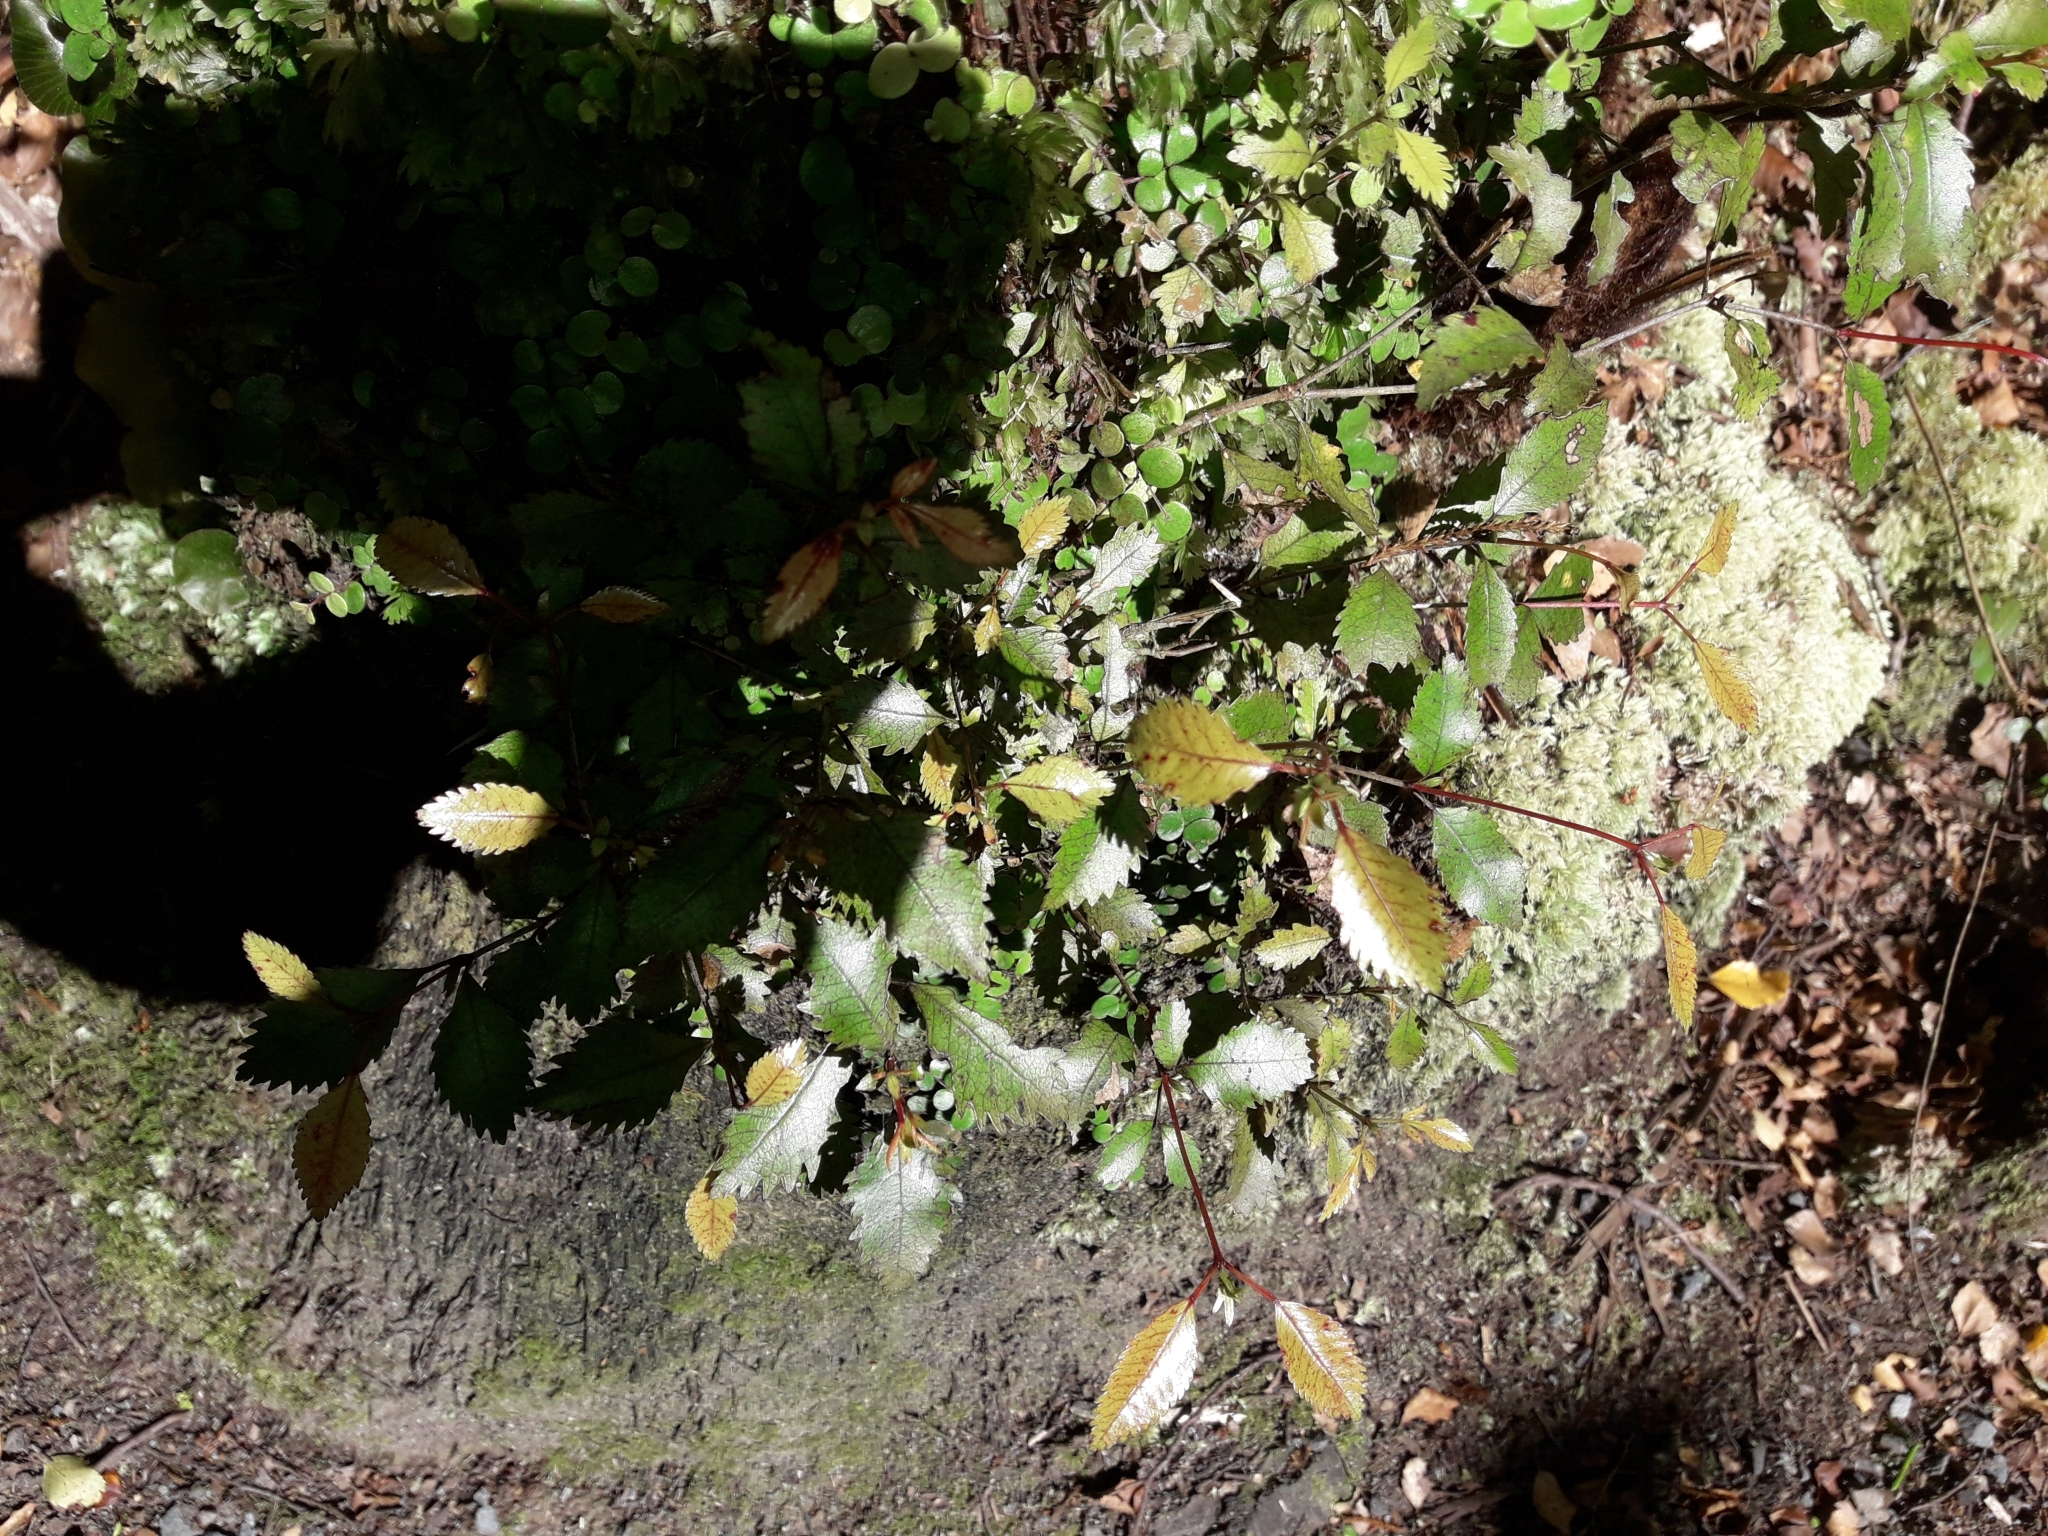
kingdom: Plantae
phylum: Tracheophyta
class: Magnoliopsida
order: Oxalidales
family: Cunoniaceae
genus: Pterophylla
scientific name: Pterophylla racemosa
